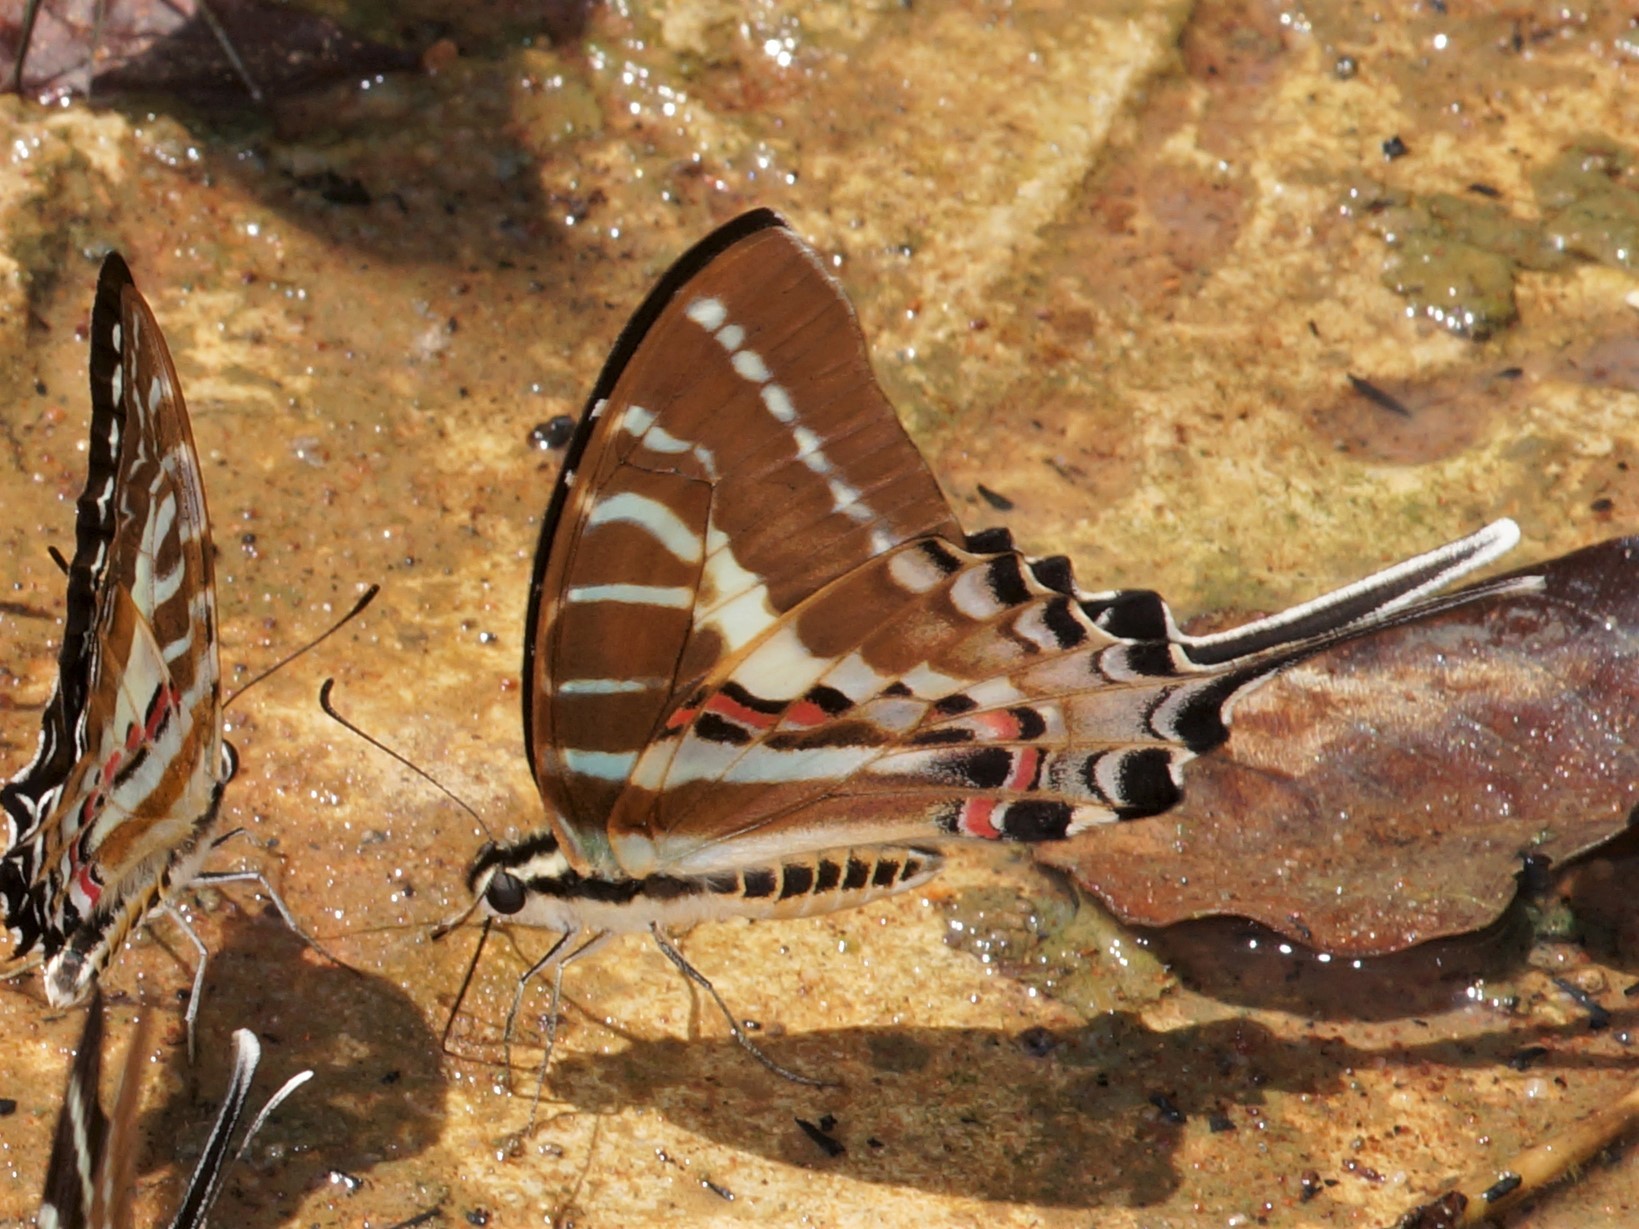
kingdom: Animalia
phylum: Arthropoda
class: Insecta
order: Lepidoptera
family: Papilionidae
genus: Graphium
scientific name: Graphium aristeus
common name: Chain swordtail
